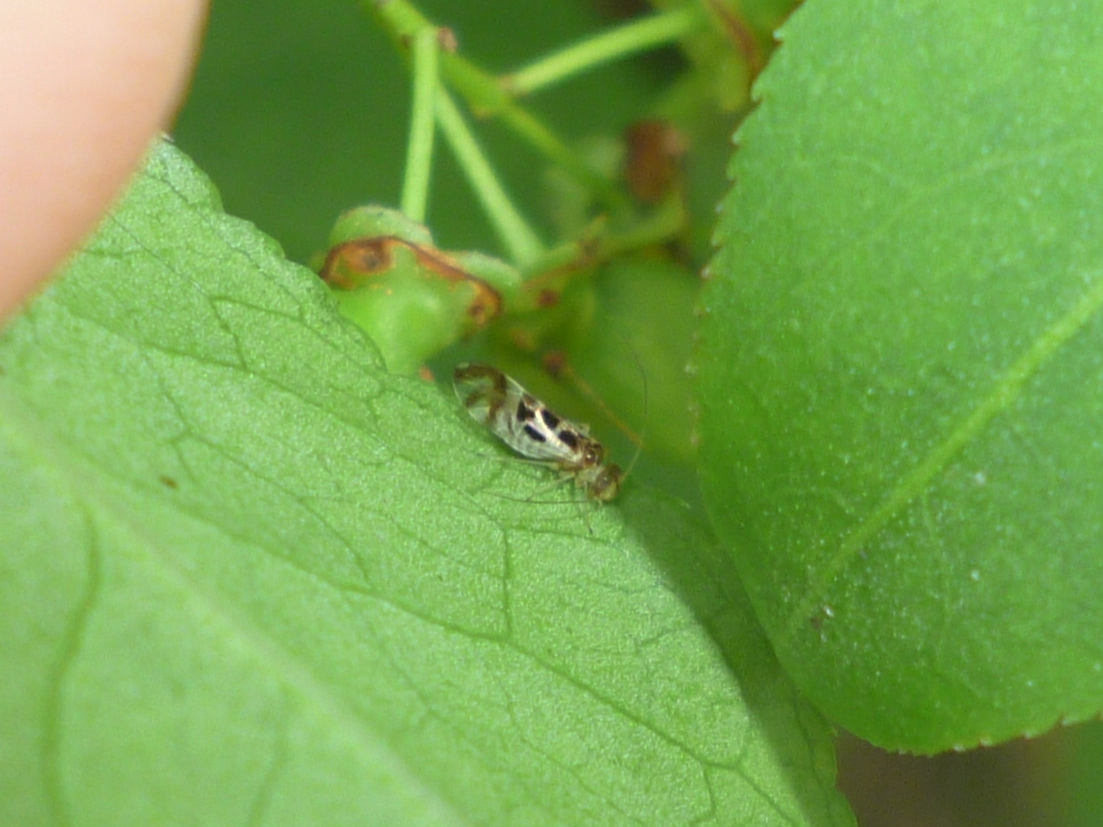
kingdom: Animalia
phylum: Arthropoda
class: Insecta
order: Psocodea
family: Stenopsocidae
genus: Graphopsocus
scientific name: Graphopsocus cruciatus
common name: Lizard bark louse
